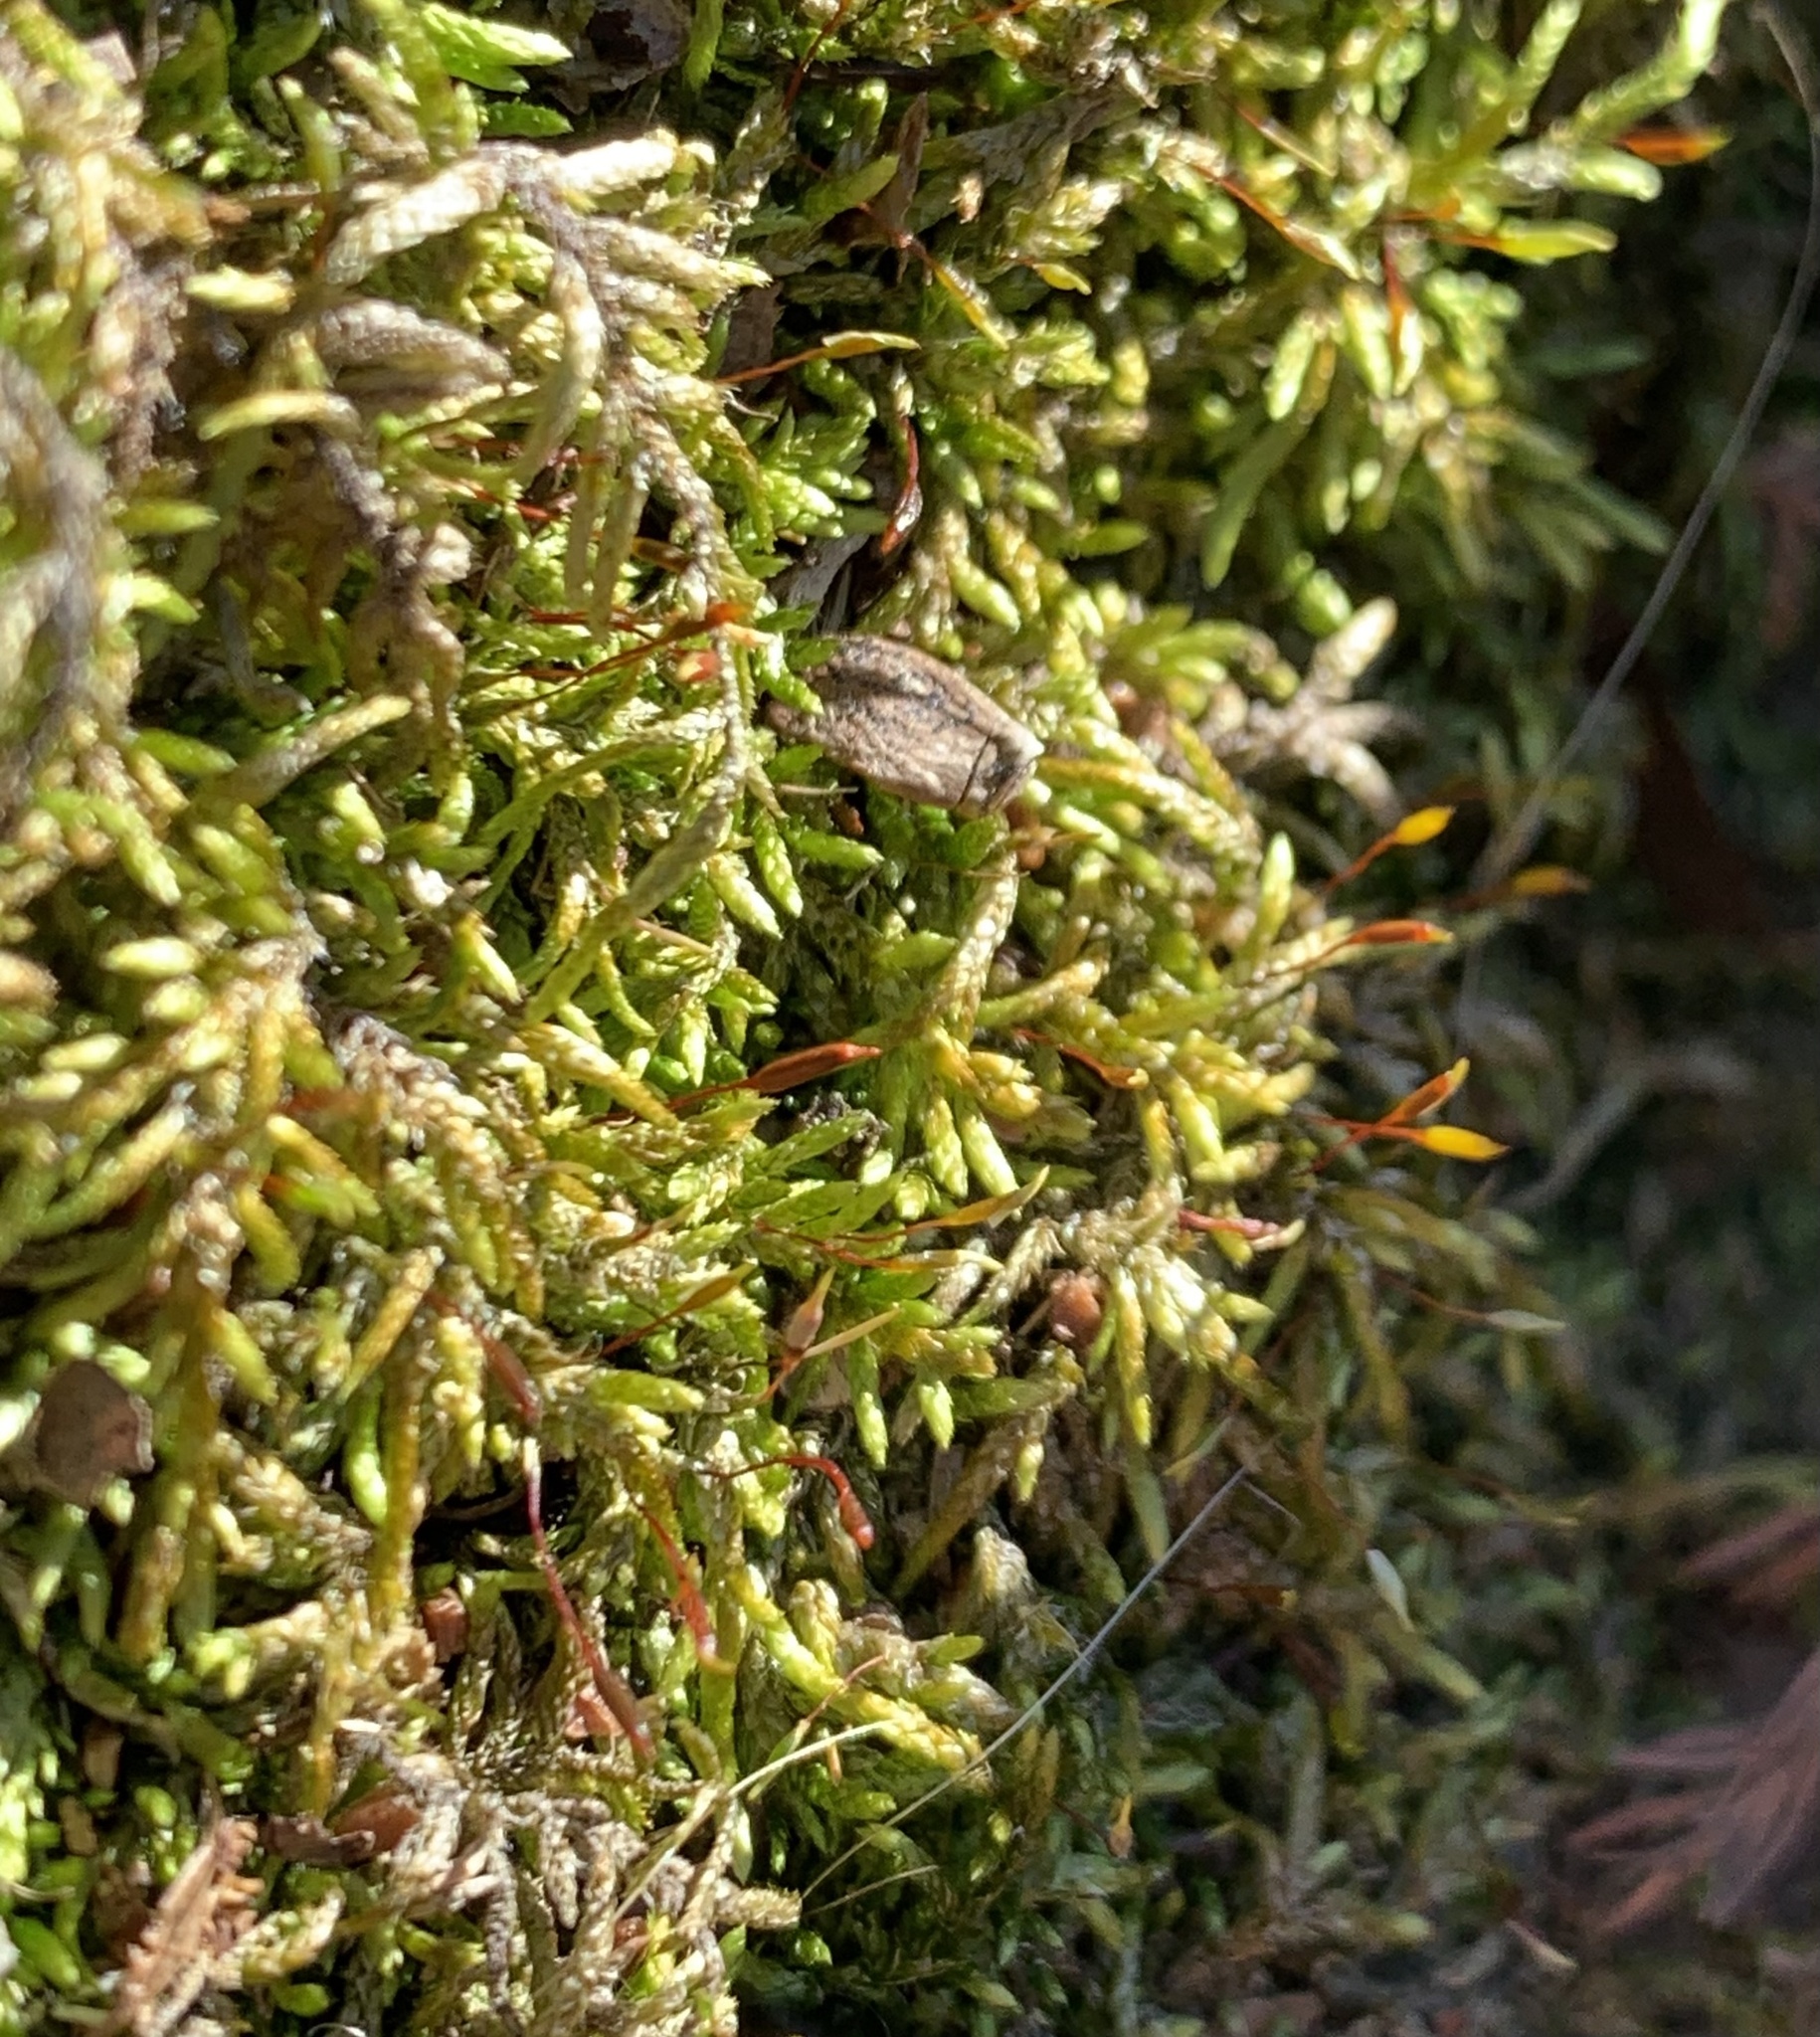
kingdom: Plantae
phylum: Bryophyta
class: Bryopsida
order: Hypnales
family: Entodontaceae
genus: Entodon
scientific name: Entodon seductrix
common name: Round-stemmed entodon moss
